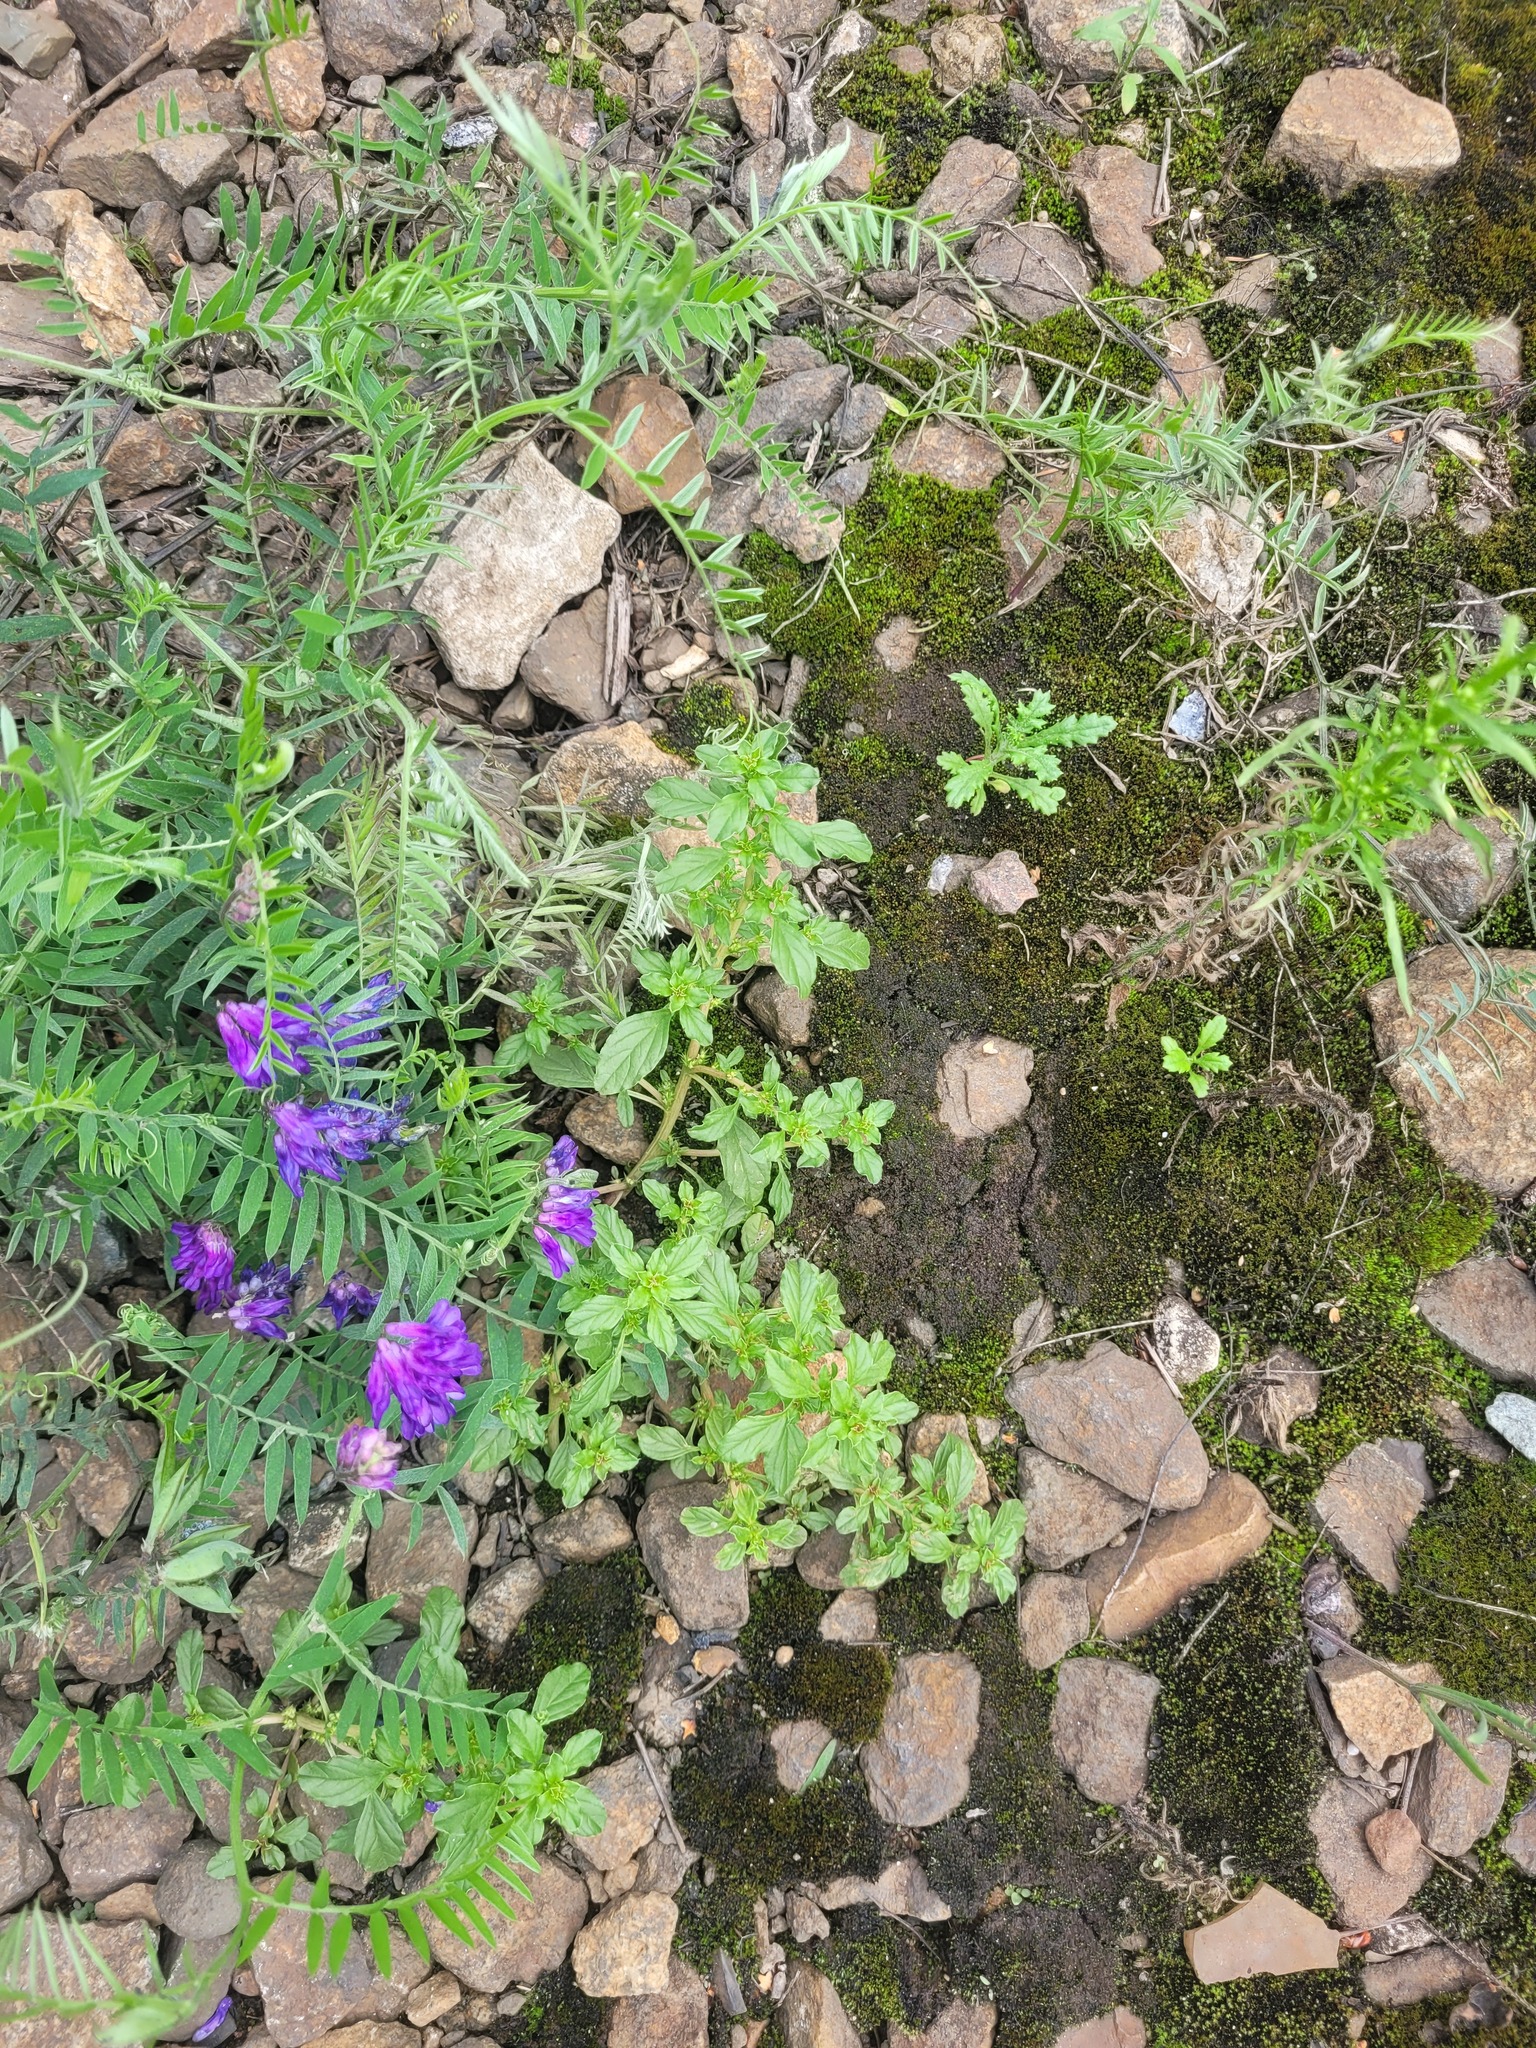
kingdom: Plantae
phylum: Tracheophyta
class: Magnoliopsida
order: Caryophyllales
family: Amaranthaceae
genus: Amaranthus
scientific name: Amaranthus albus
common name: White pigweed
